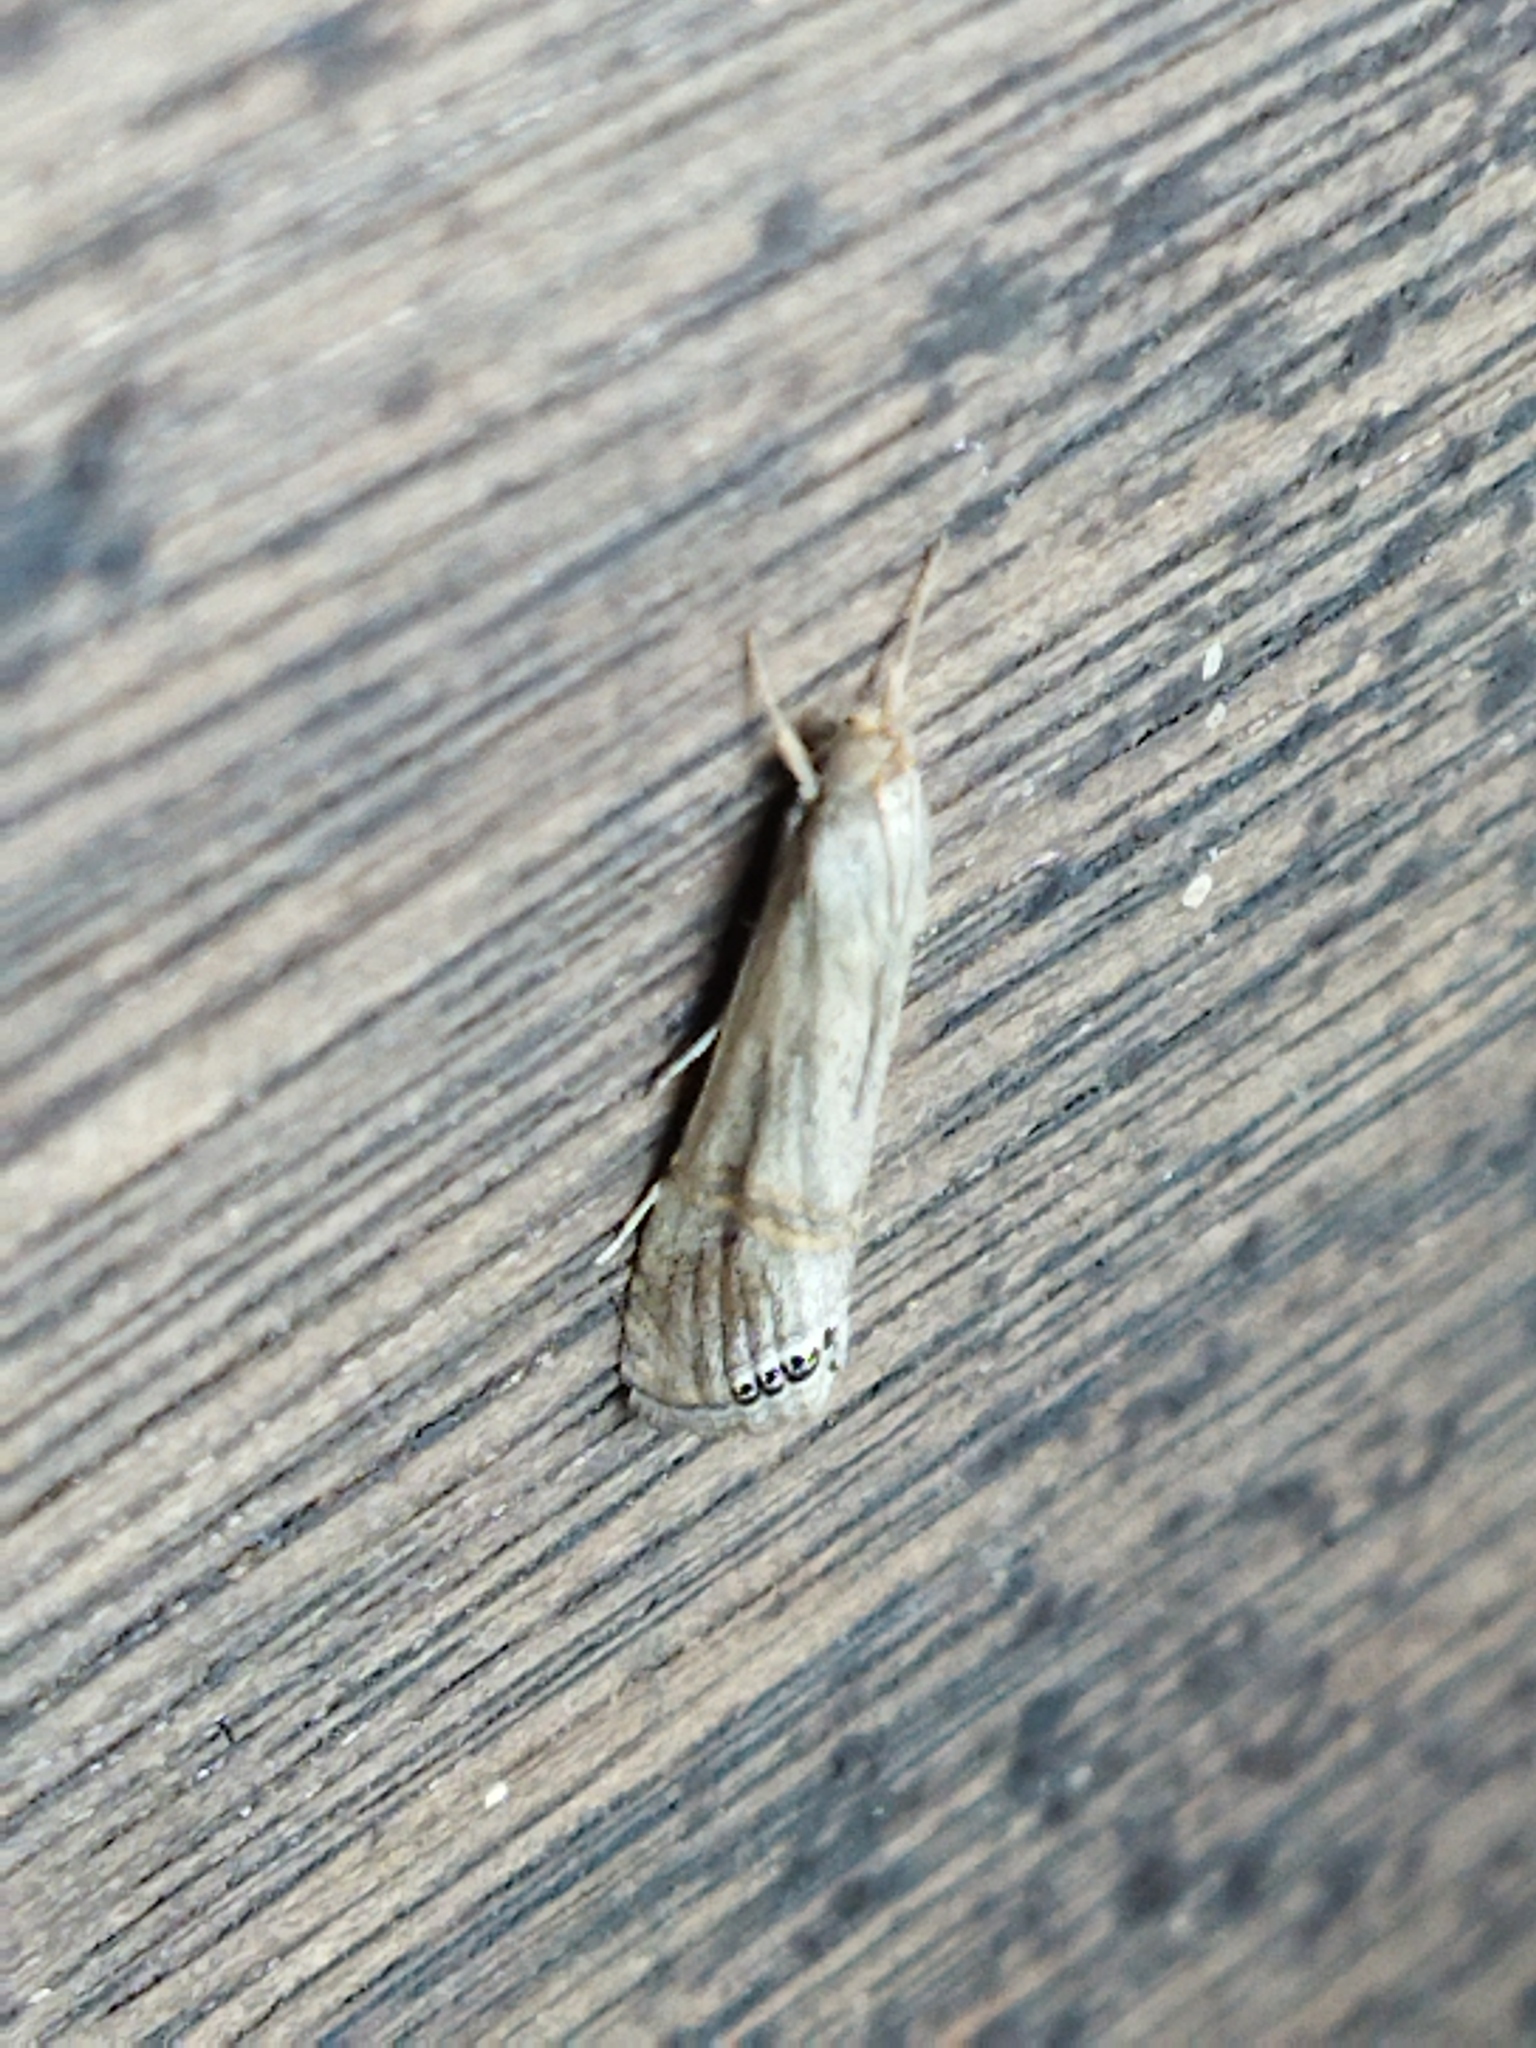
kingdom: Animalia
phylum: Arthropoda
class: Insecta
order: Lepidoptera
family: Crambidae
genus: Euchromius
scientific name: Euchromius ocellea
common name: Necklace veneer moth
